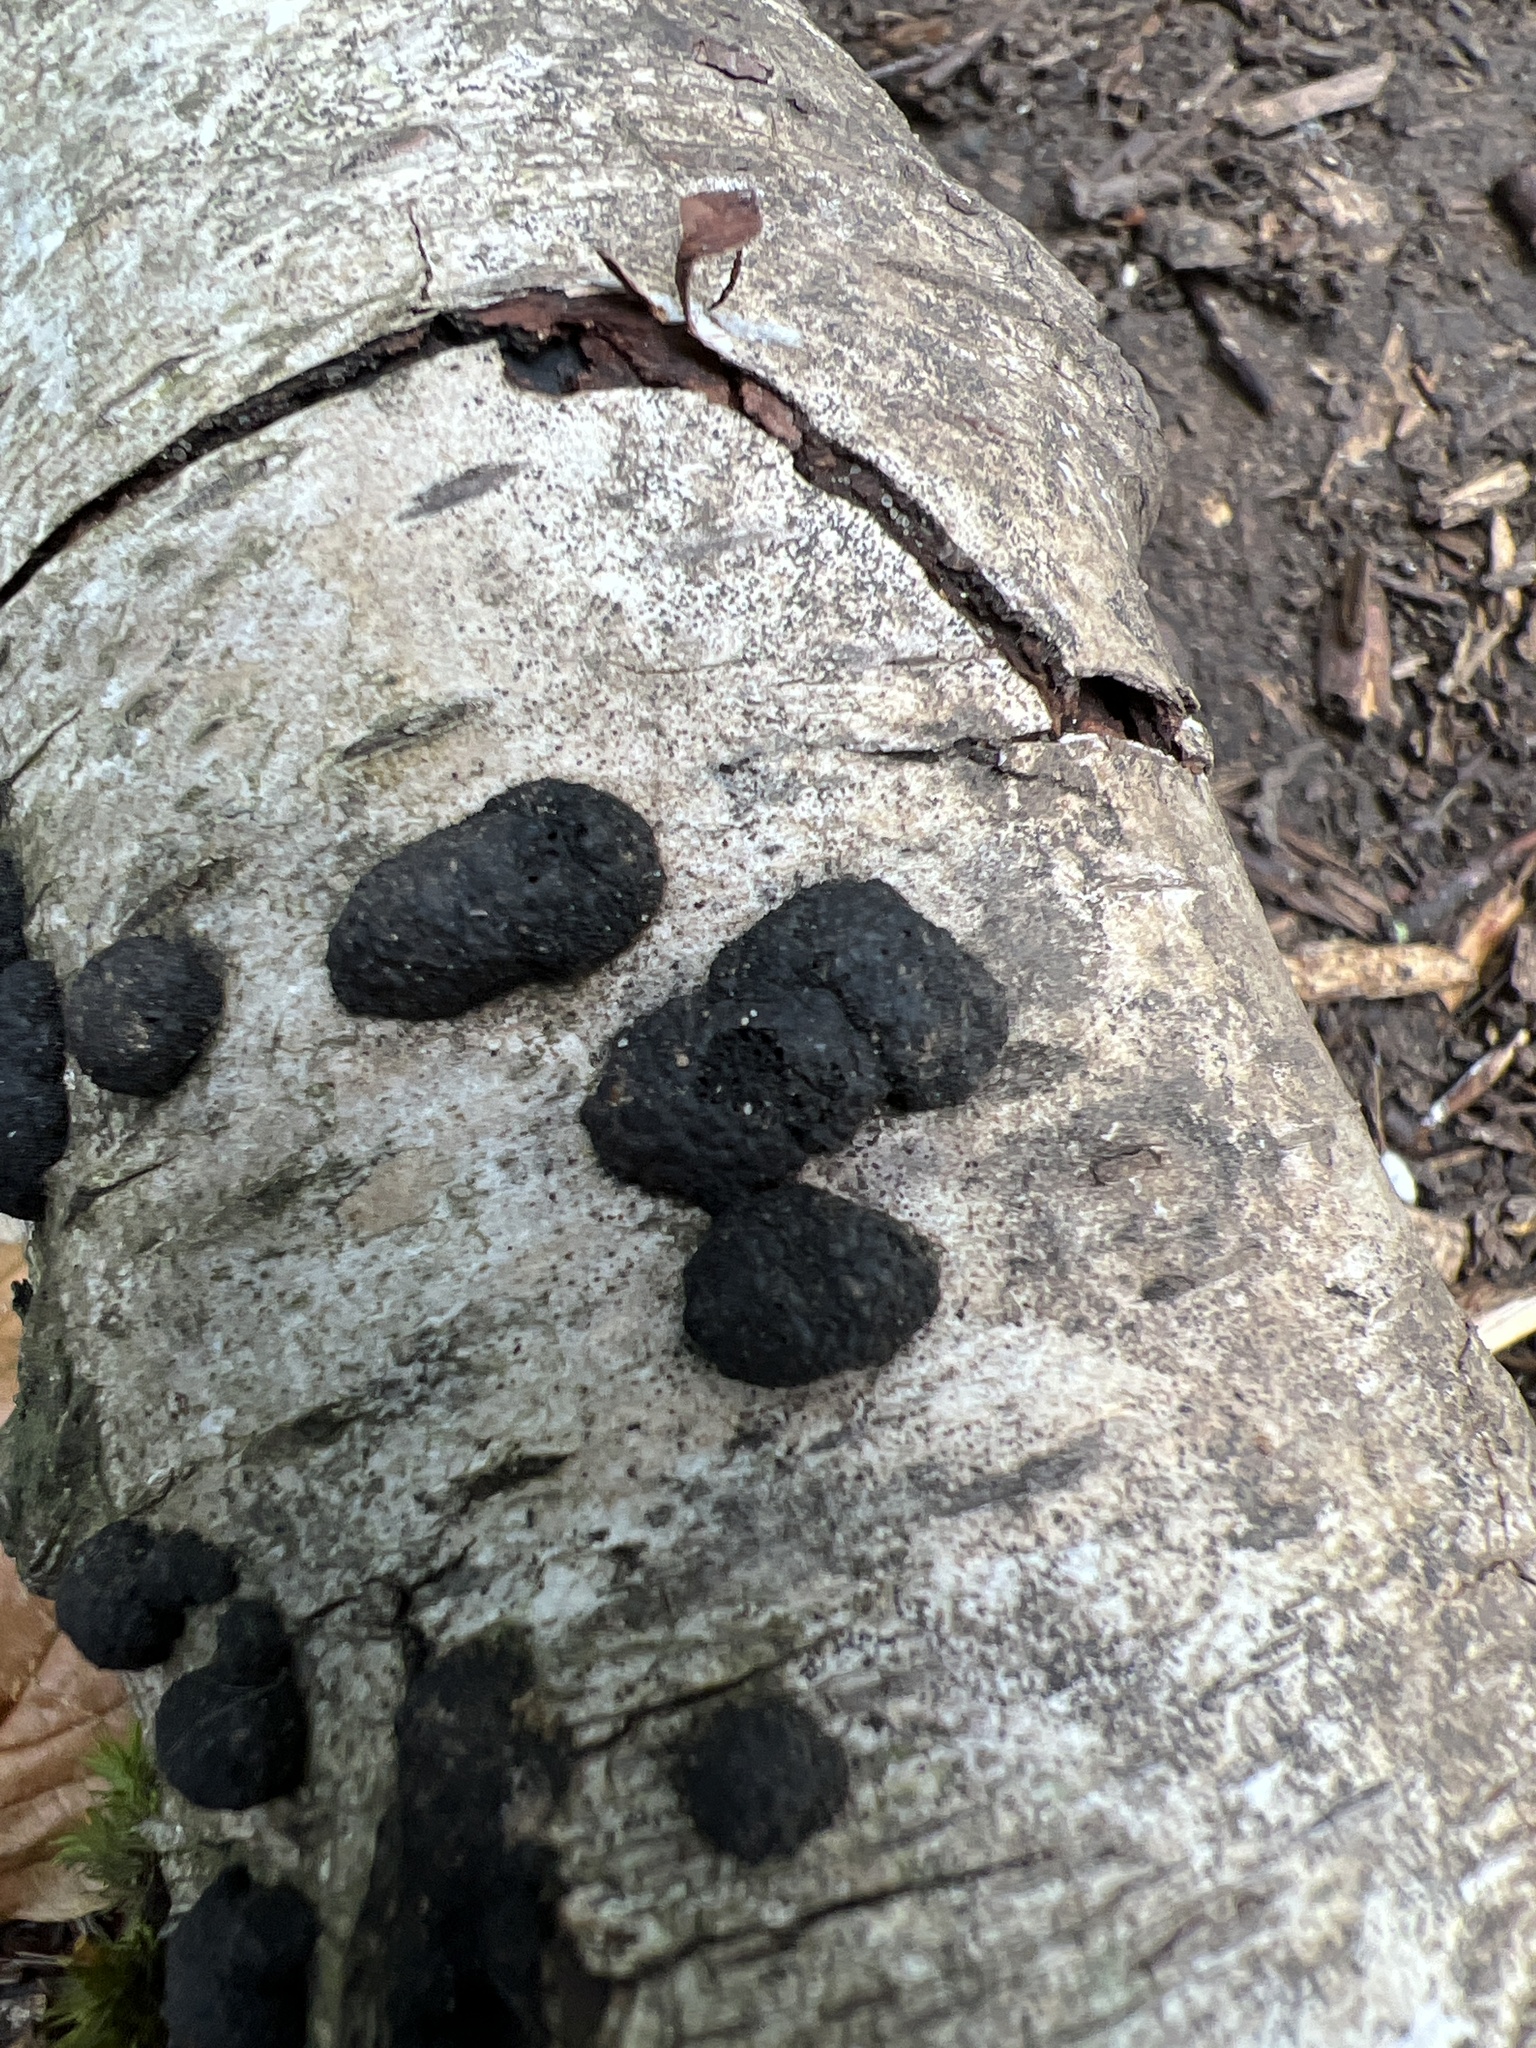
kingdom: Fungi
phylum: Ascomycota
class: Sordariomycetes
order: Xylariales
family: Hypoxylaceae
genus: Jackrogersella
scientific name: Jackrogersella multiformis
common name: Birch woodwart
